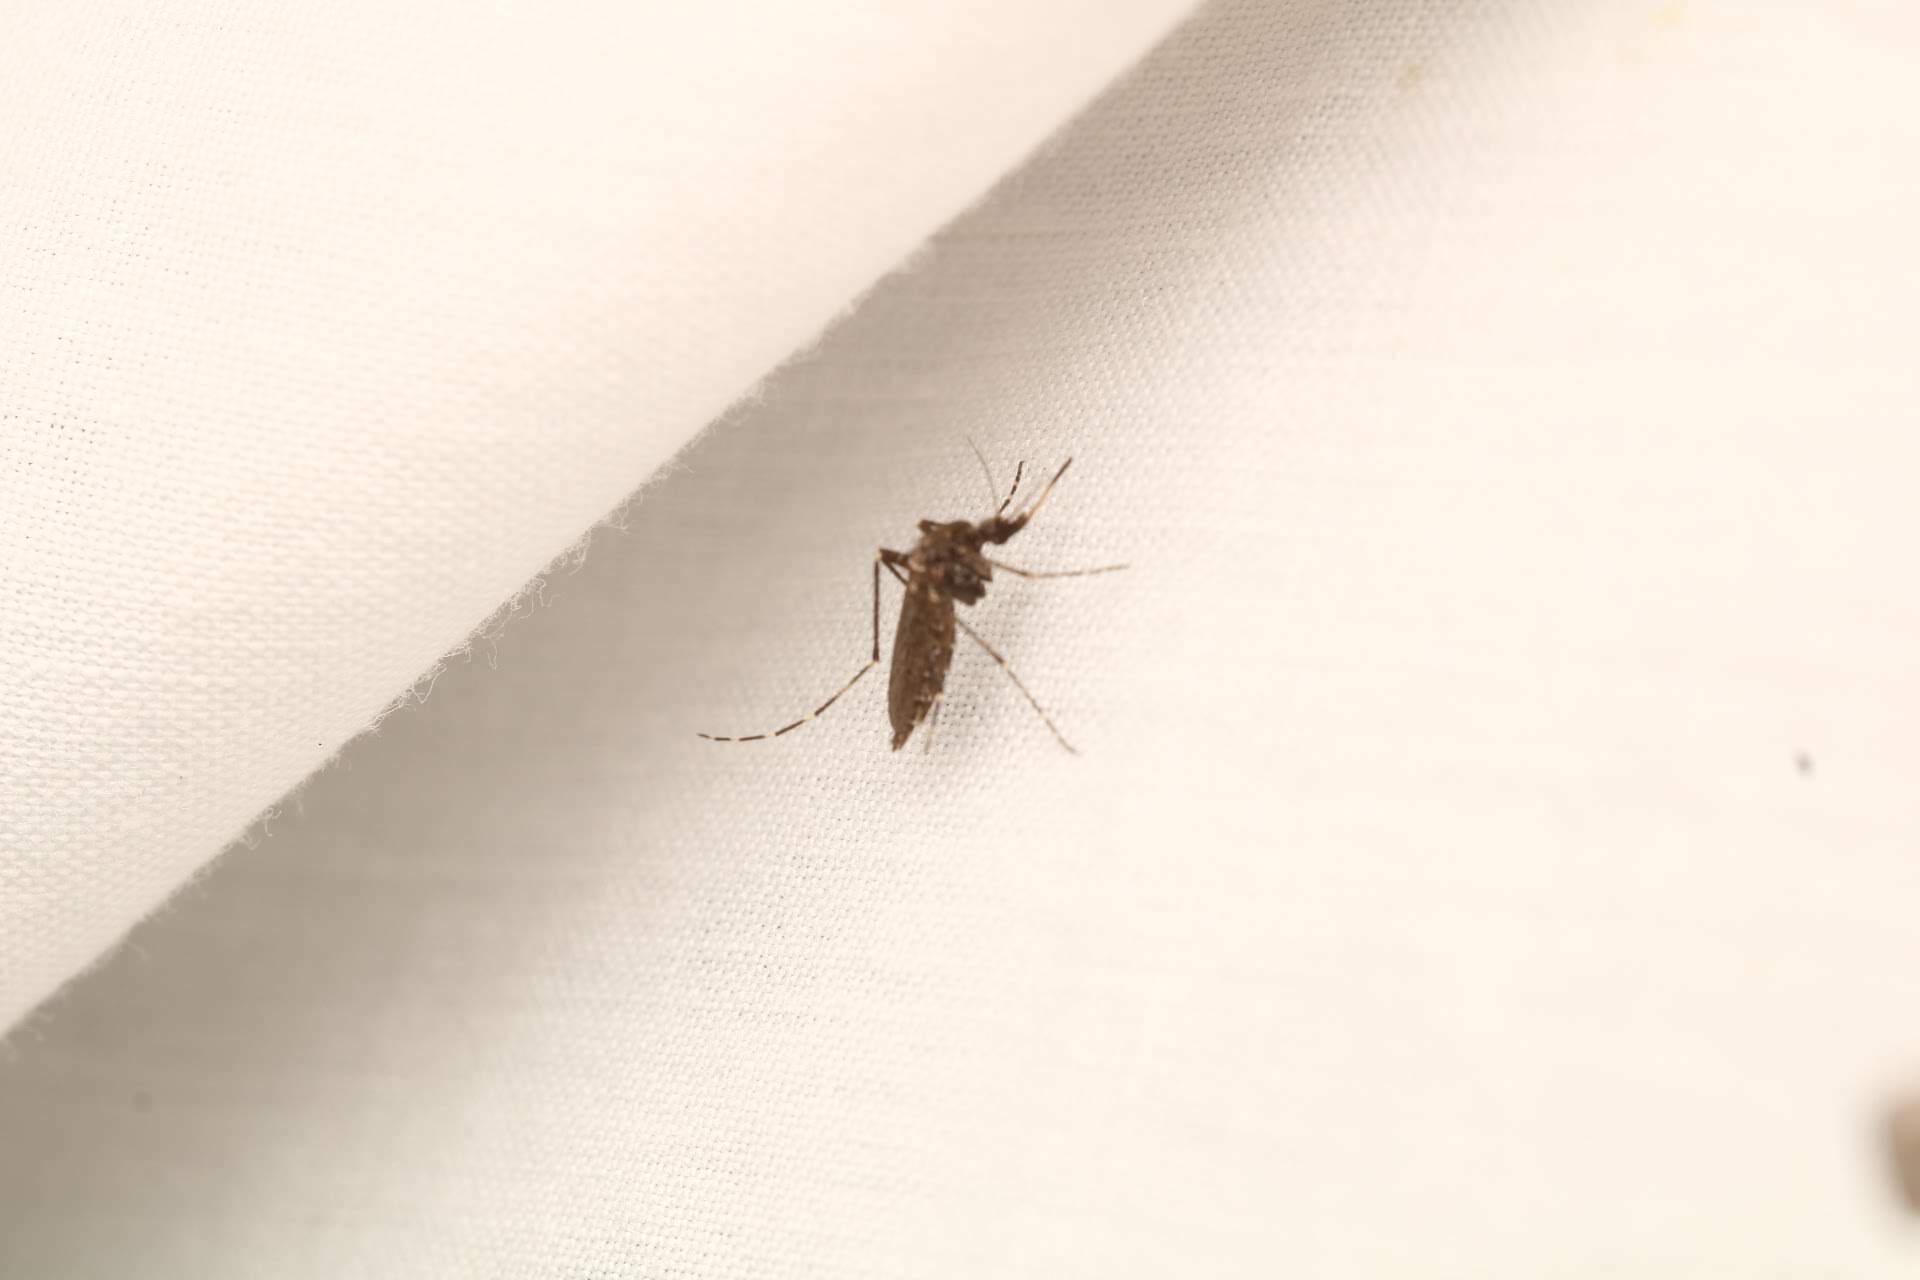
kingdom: Animalia
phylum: Arthropoda
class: Insecta
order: Diptera
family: Culicidae
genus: Psorophora
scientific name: Psorophora columbiae
